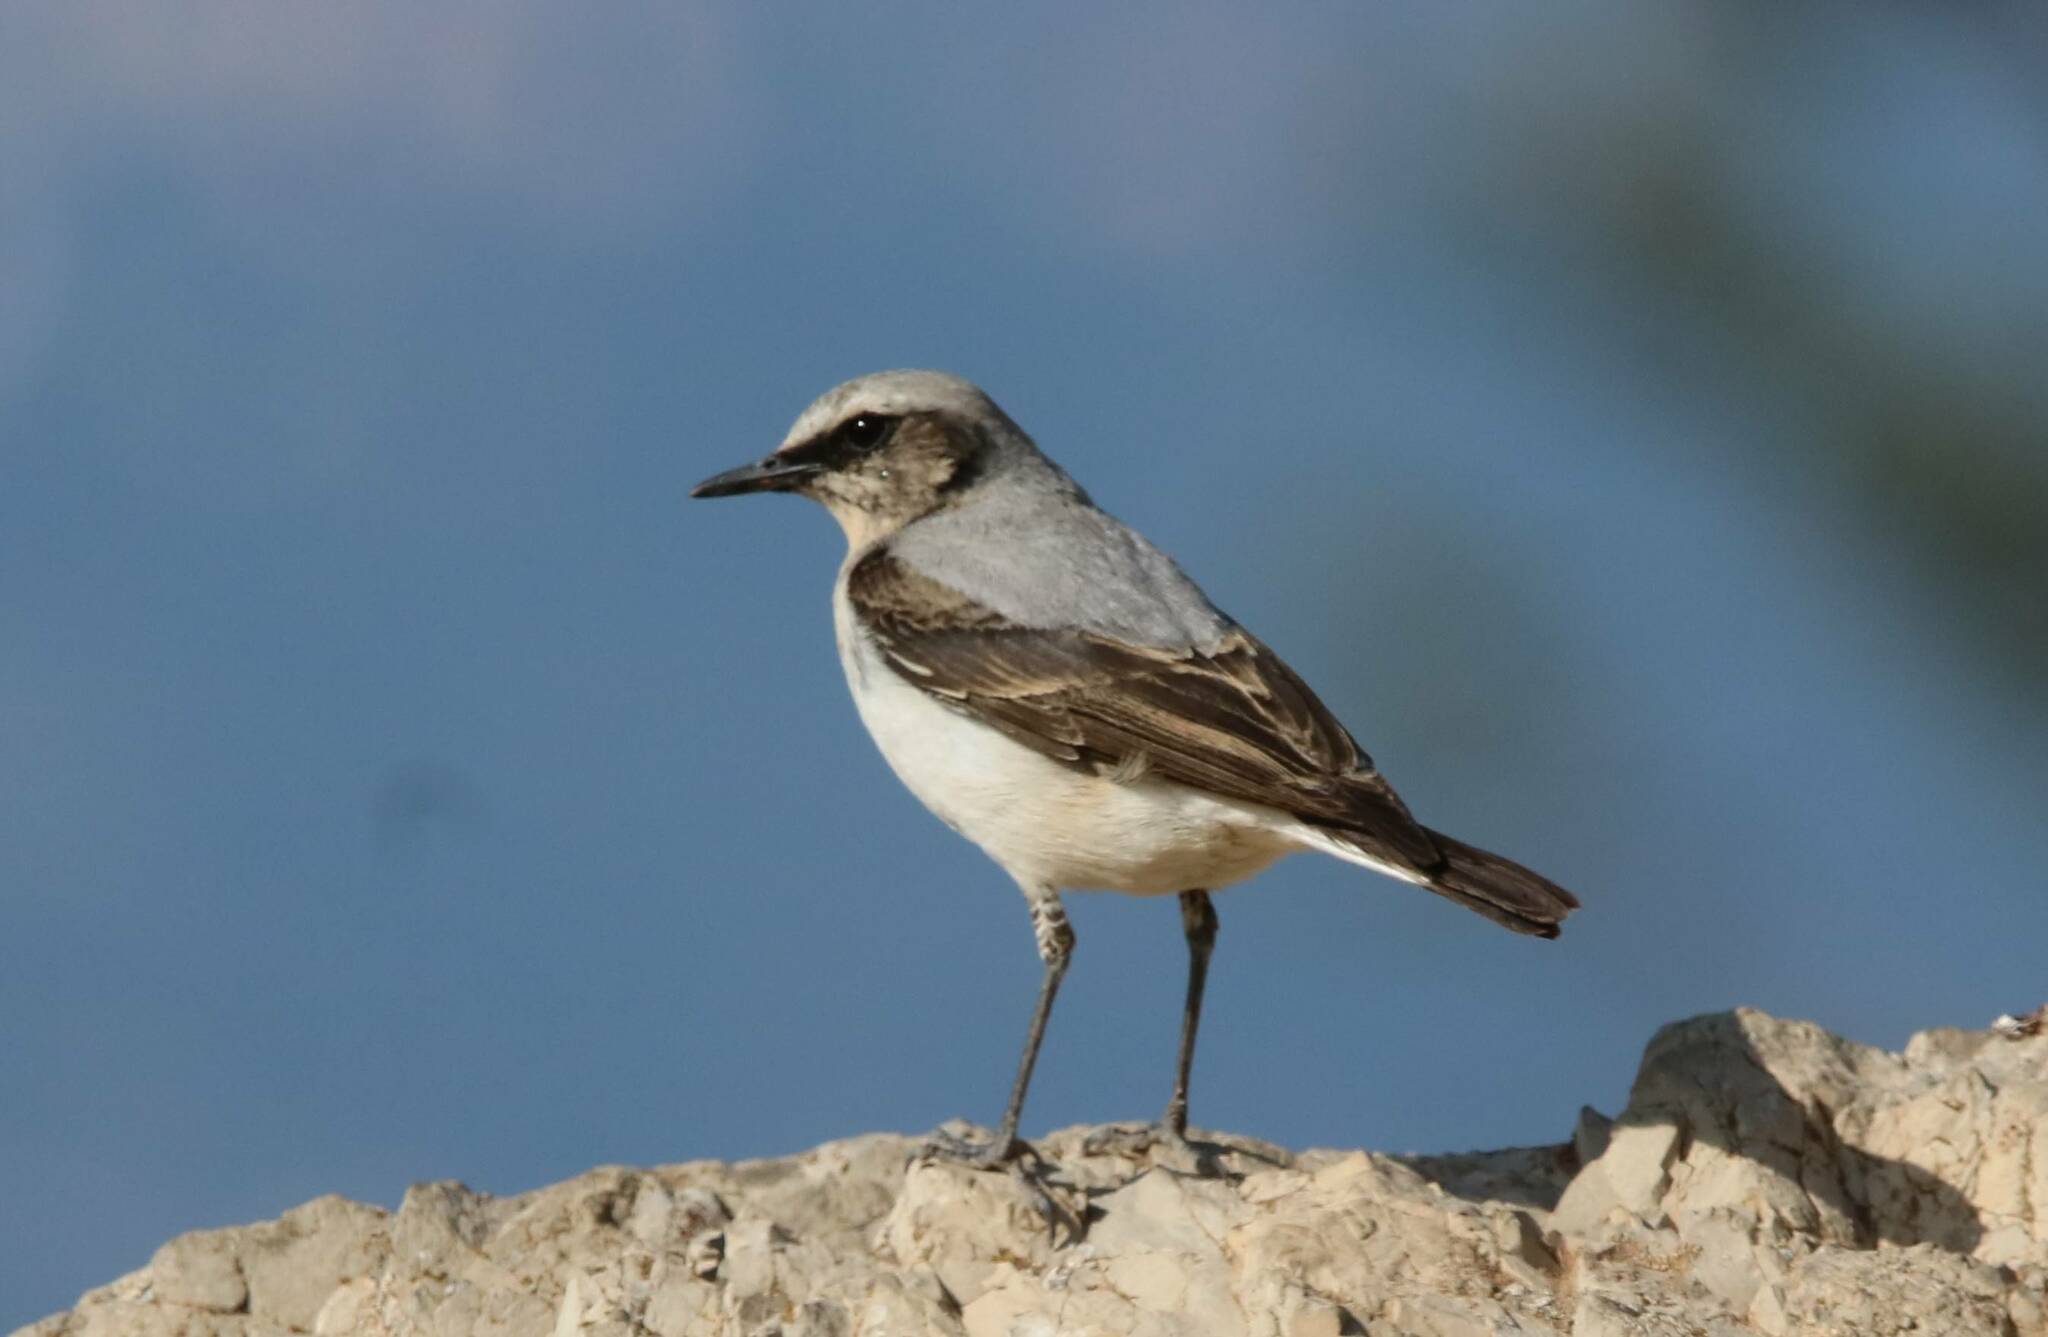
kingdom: Animalia
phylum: Chordata
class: Aves
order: Passeriformes
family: Muscicapidae
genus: Oenanthe
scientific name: Oenanthe oenanthe
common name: Northern wheatear
